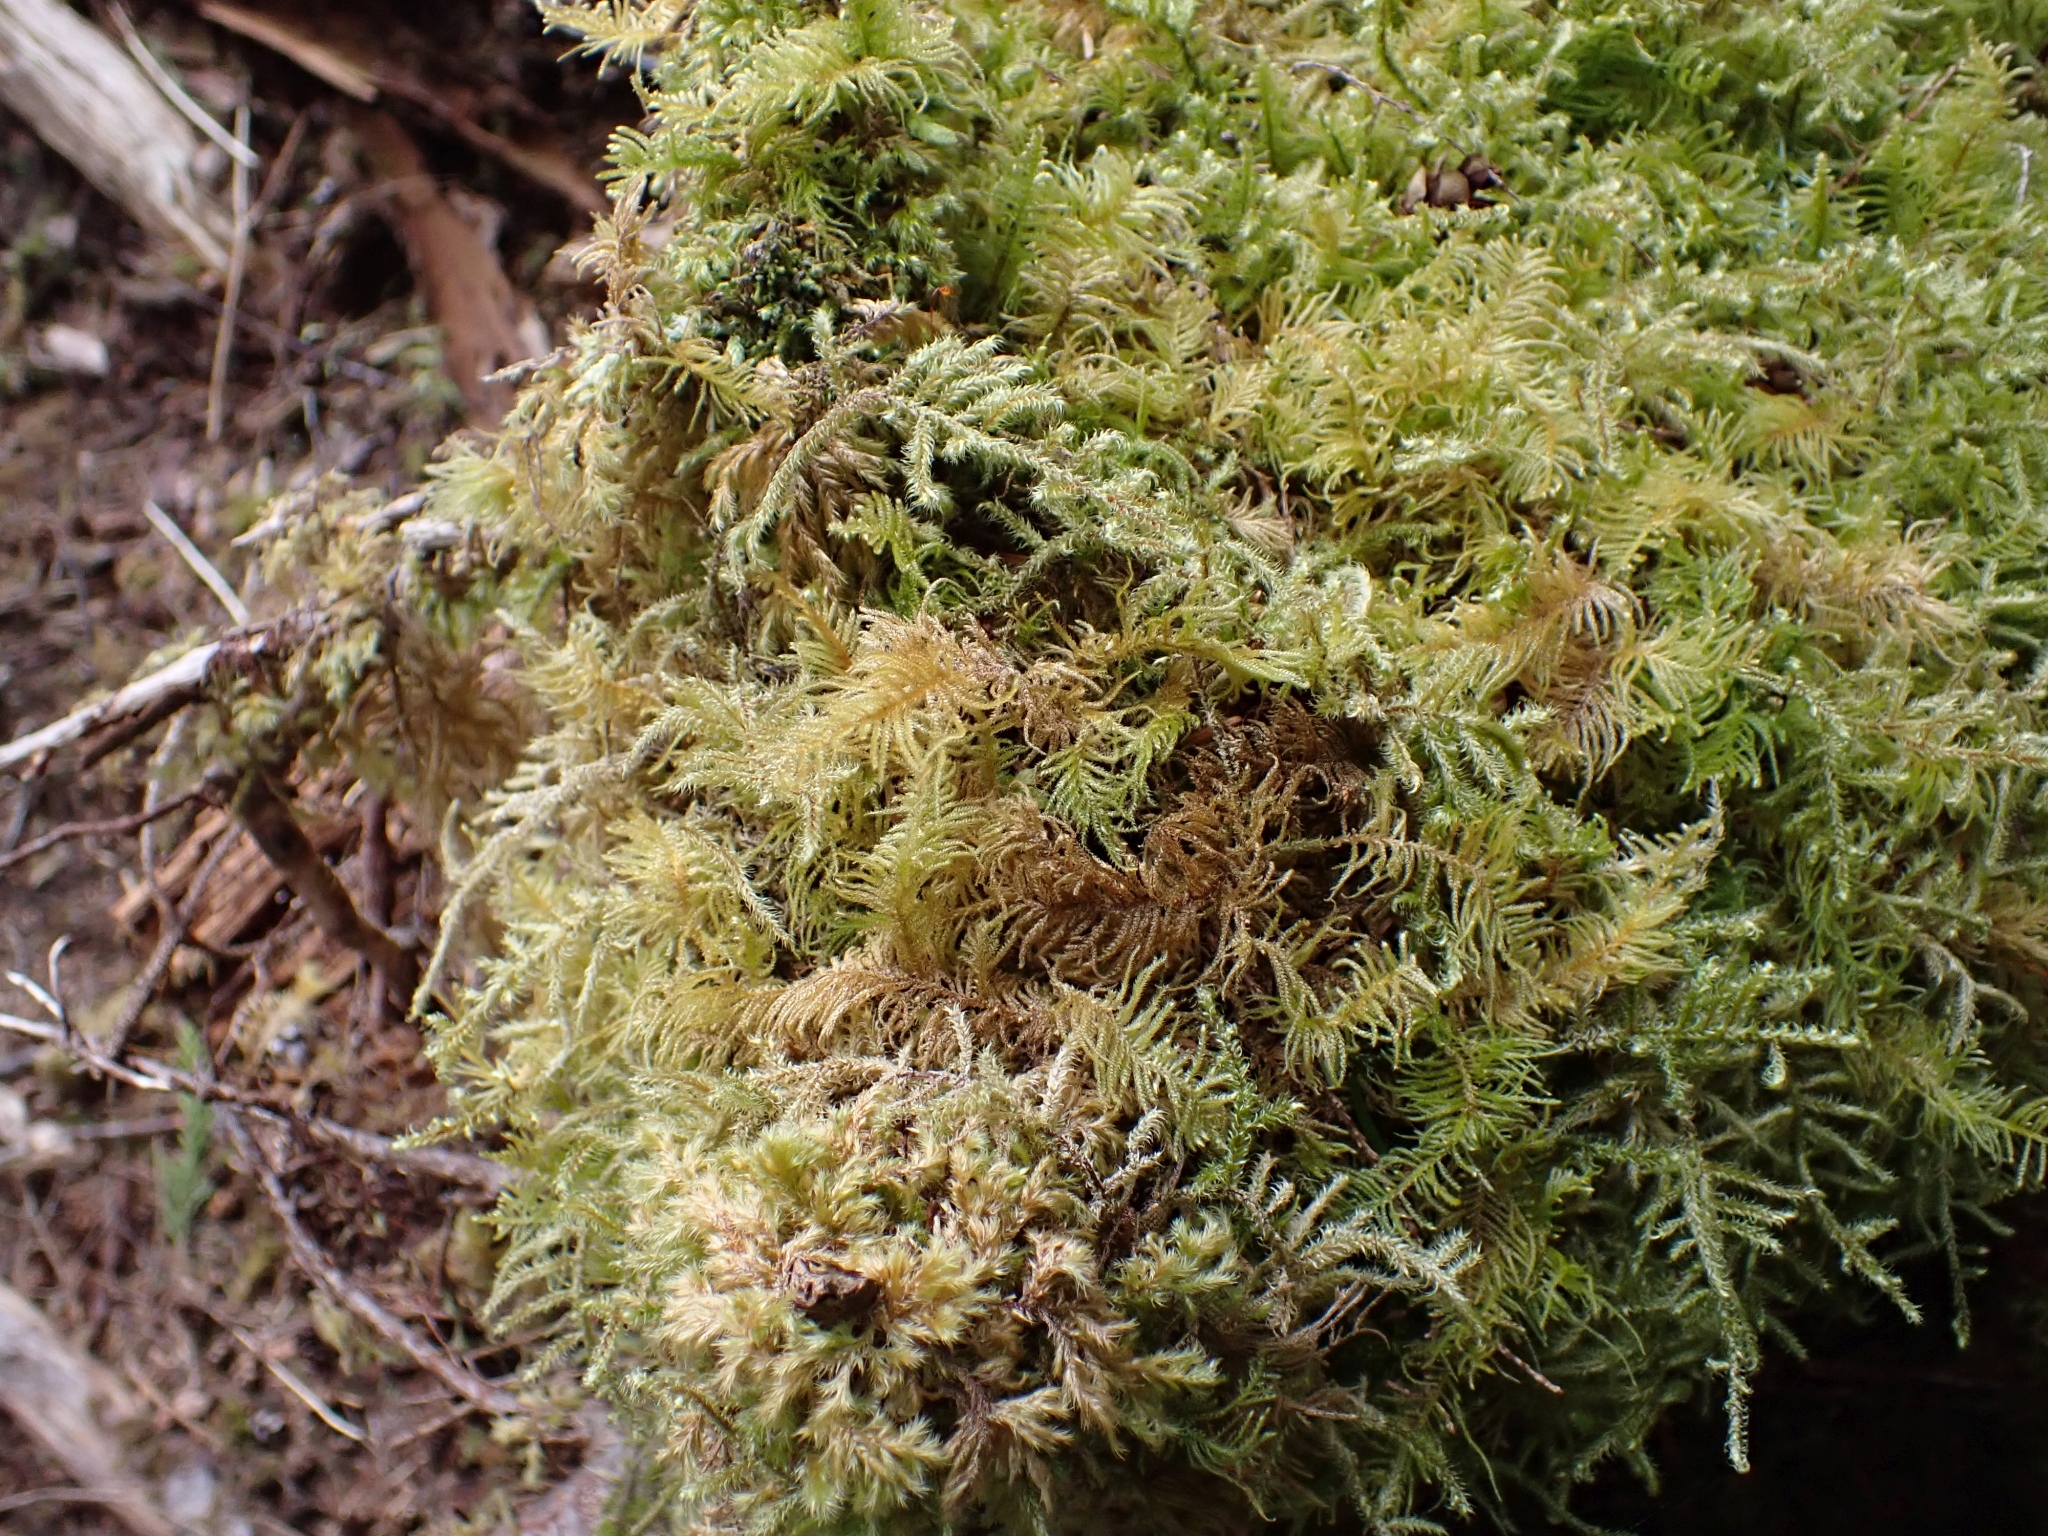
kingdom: Plantae
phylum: Bryophyta
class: Bryopsida
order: Hypnales
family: Brachytheciaceae
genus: Kindbergia
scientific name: Kindbergia oregana
